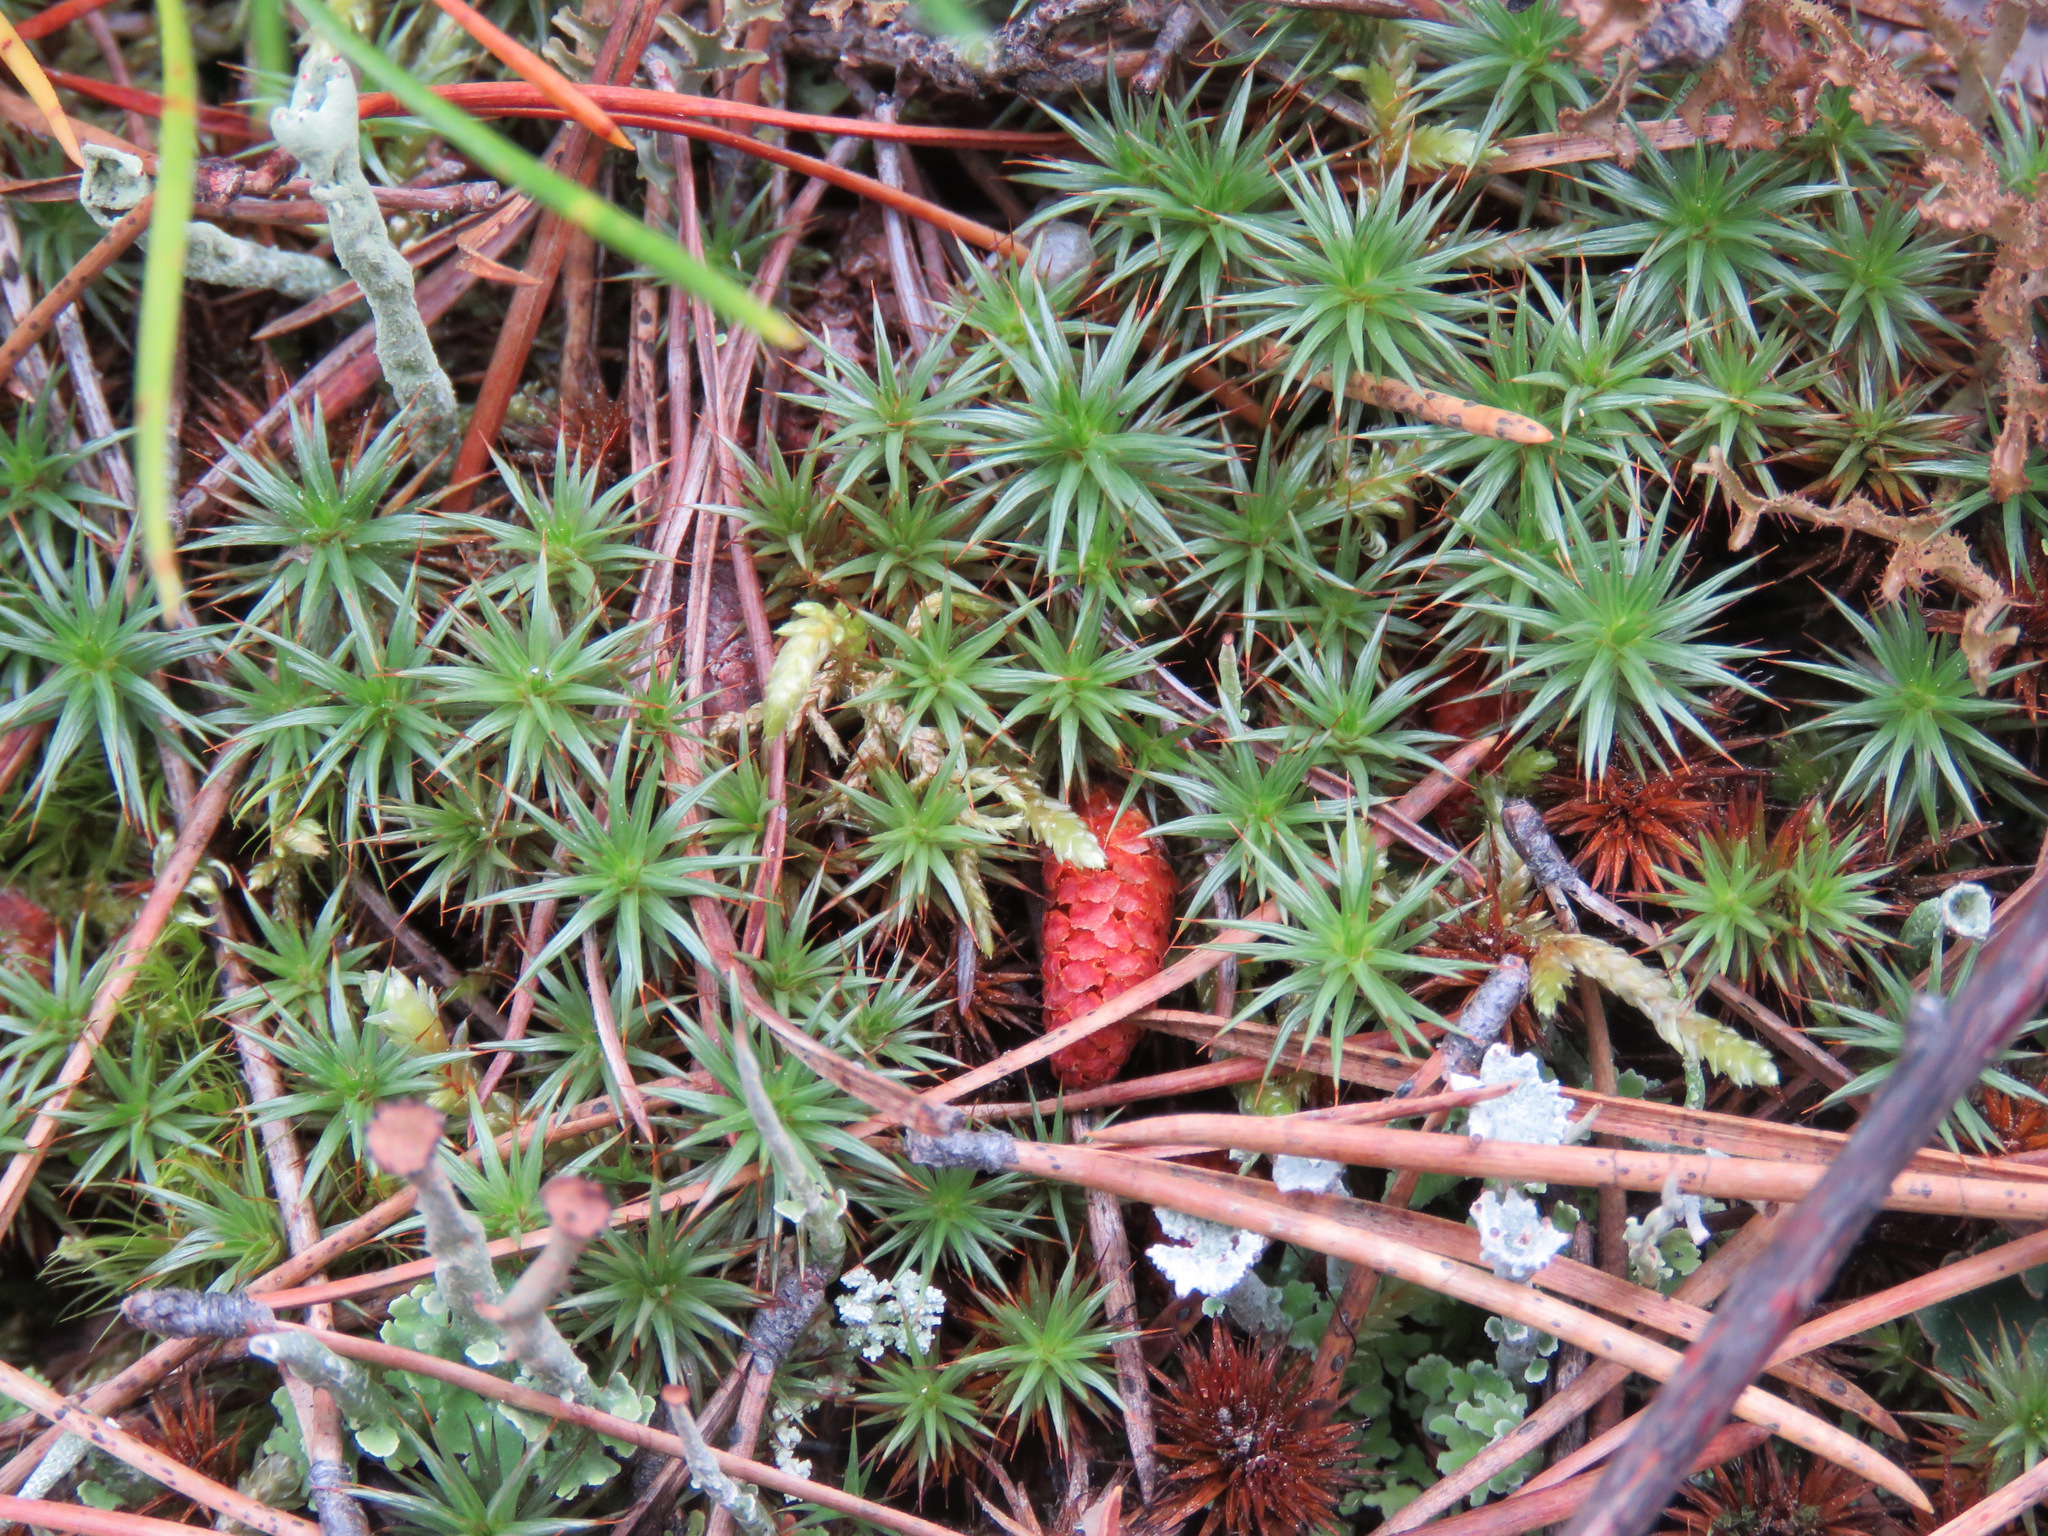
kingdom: Plantae
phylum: Bryophyta
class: Polytrichopsida
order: Polytrichales
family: Polytrichaceae
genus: Polytrichum
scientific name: Polytrichum juniperinum
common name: Juniper haircap moss
